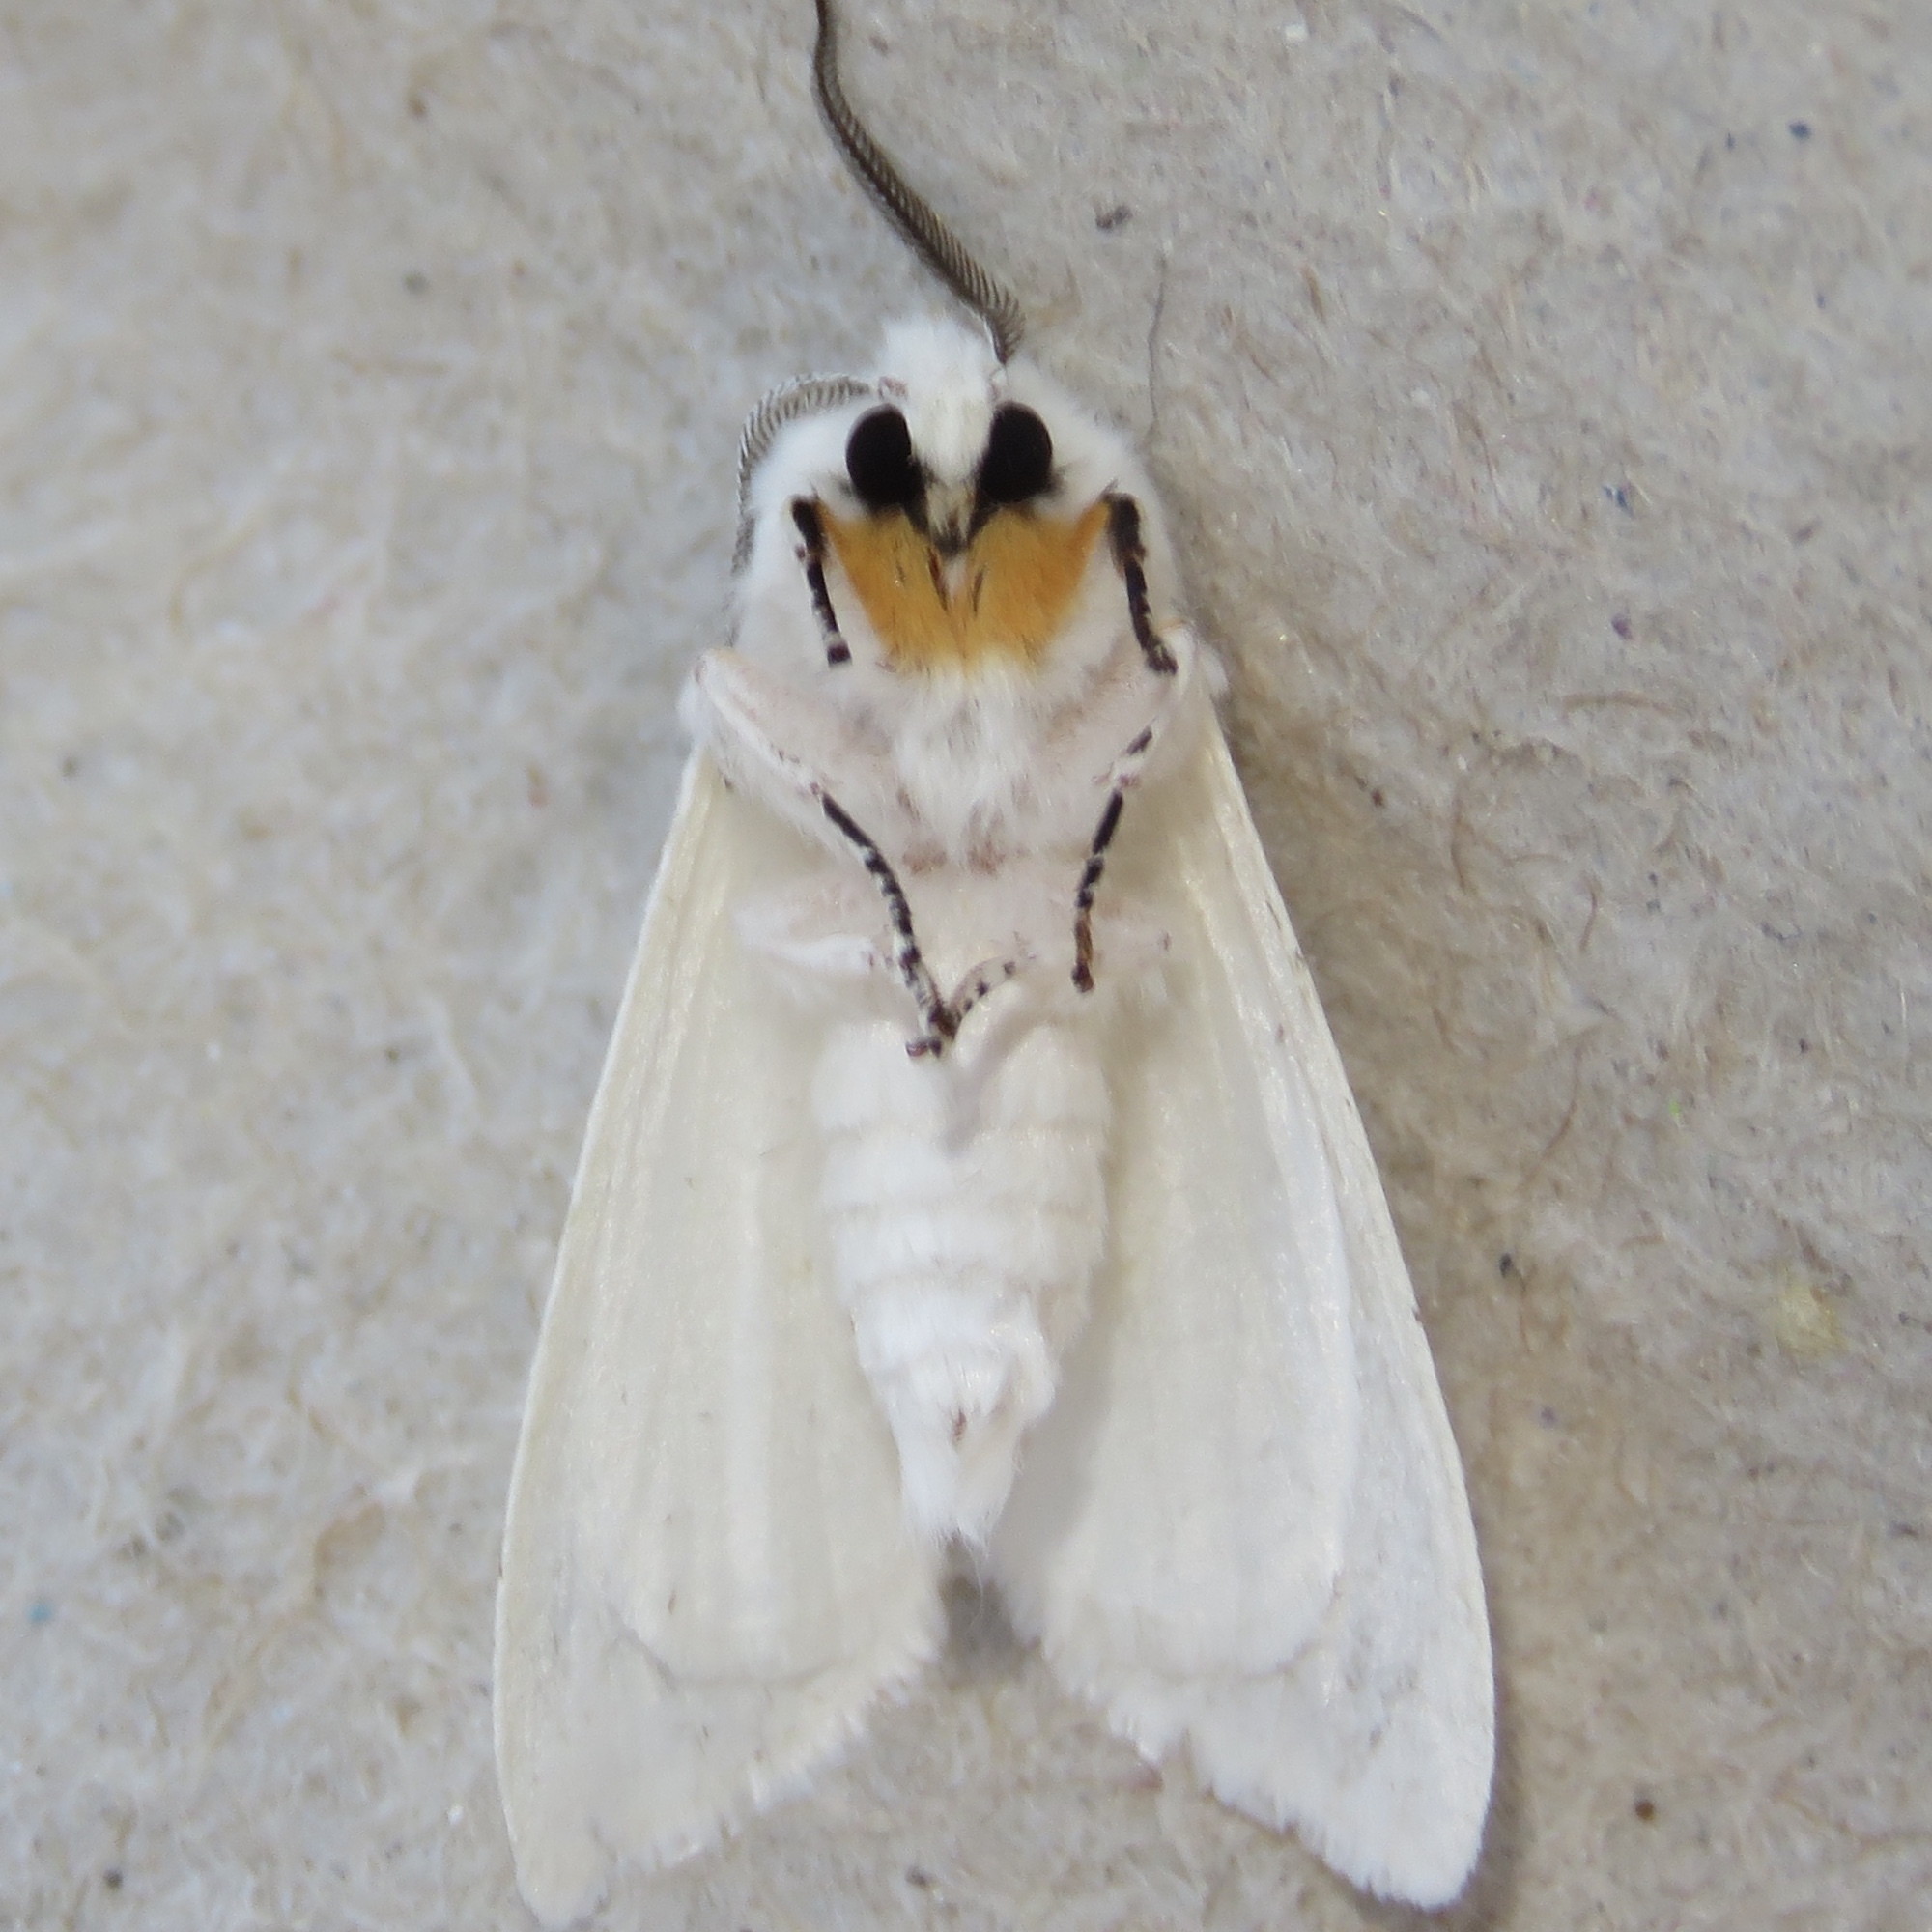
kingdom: Animalia
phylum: Arthropoda
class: Insecta
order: Lepidoptera
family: Erebidae
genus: Hyphantria
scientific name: Hyphantria cunea
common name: American white moth
